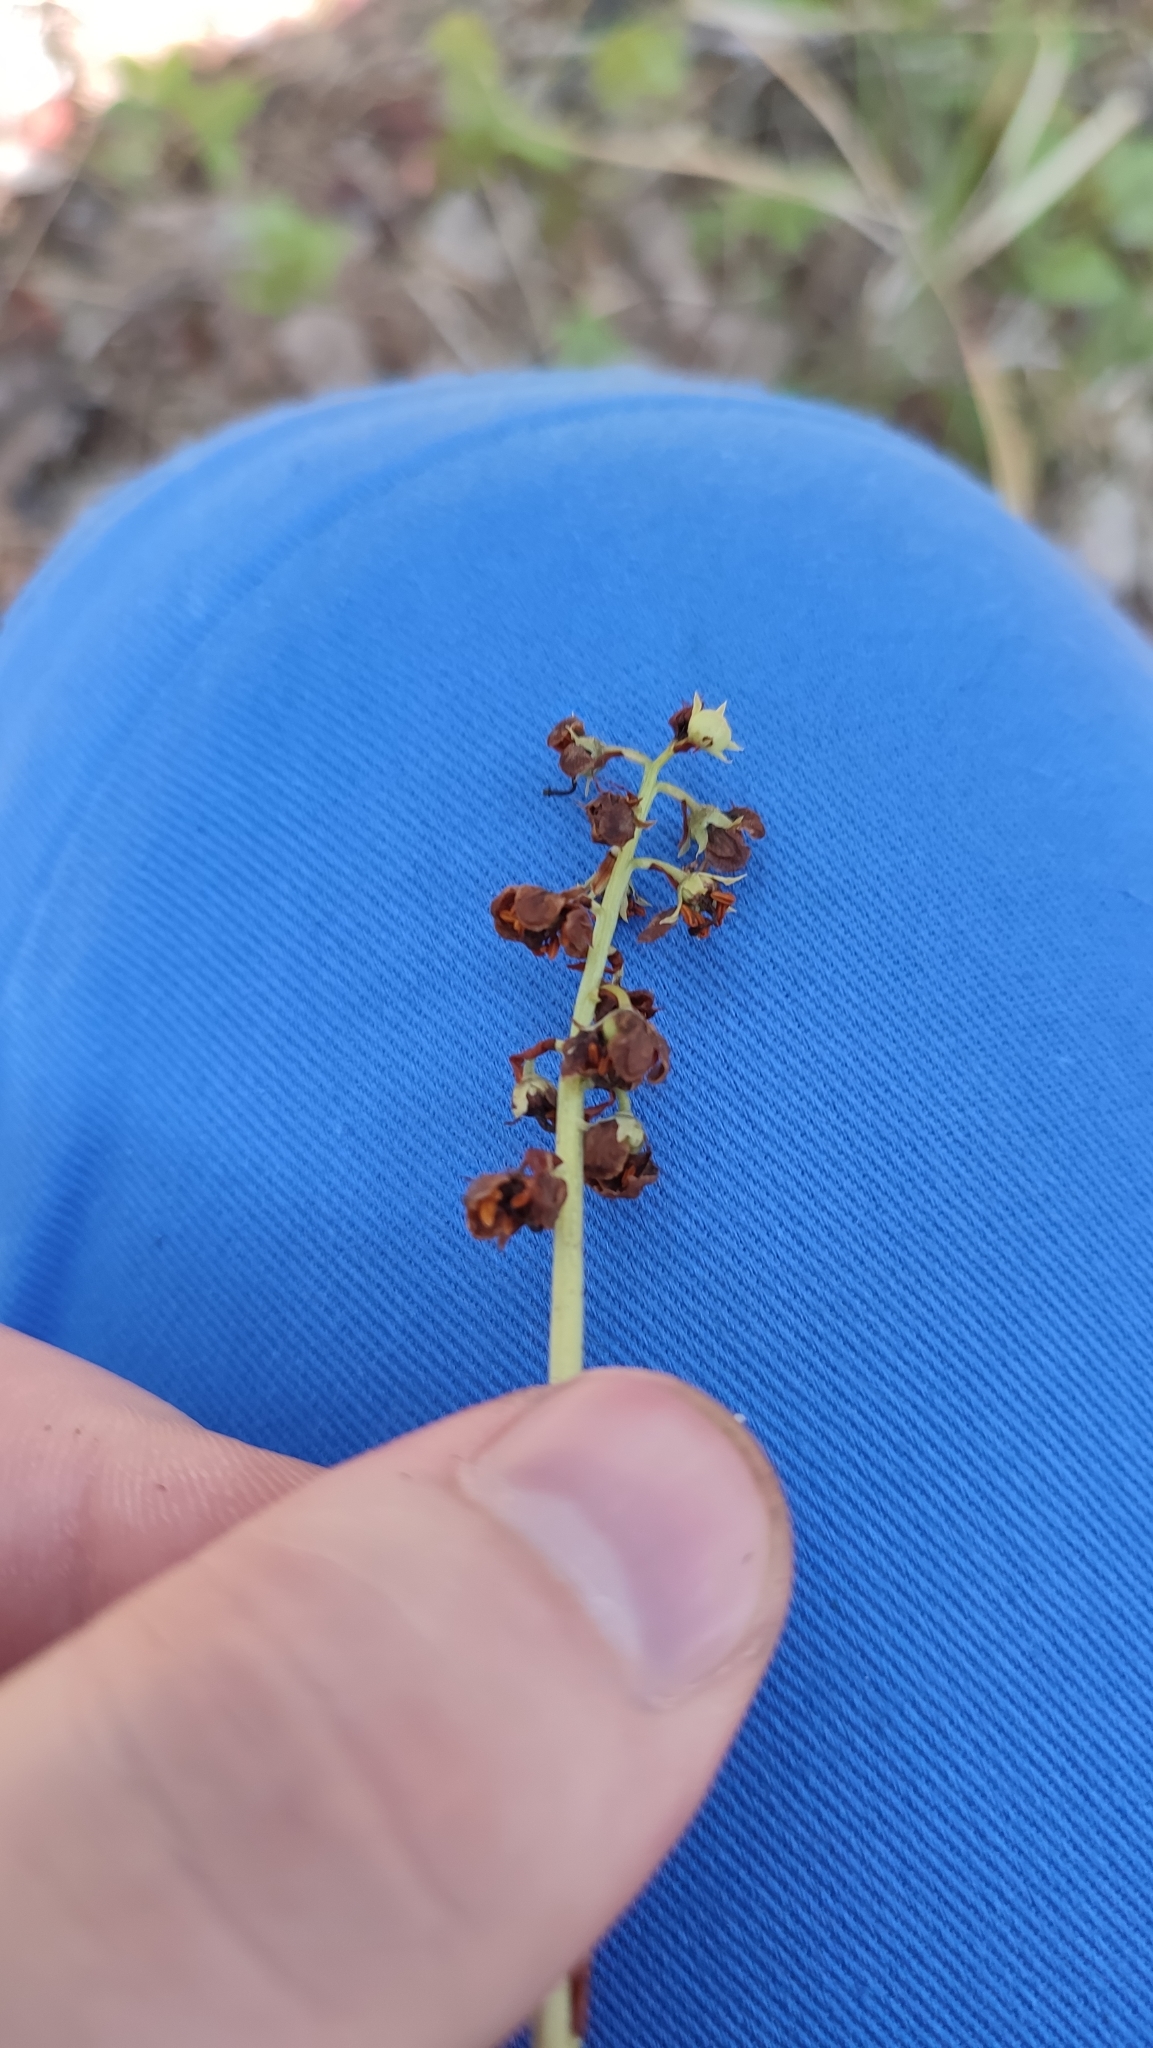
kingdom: Plantae
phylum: Tracheophyta
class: Magnoliopsida
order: Ericales
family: Ericaceae
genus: Pyrola
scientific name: Pyrola minor
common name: Common wintergreen
